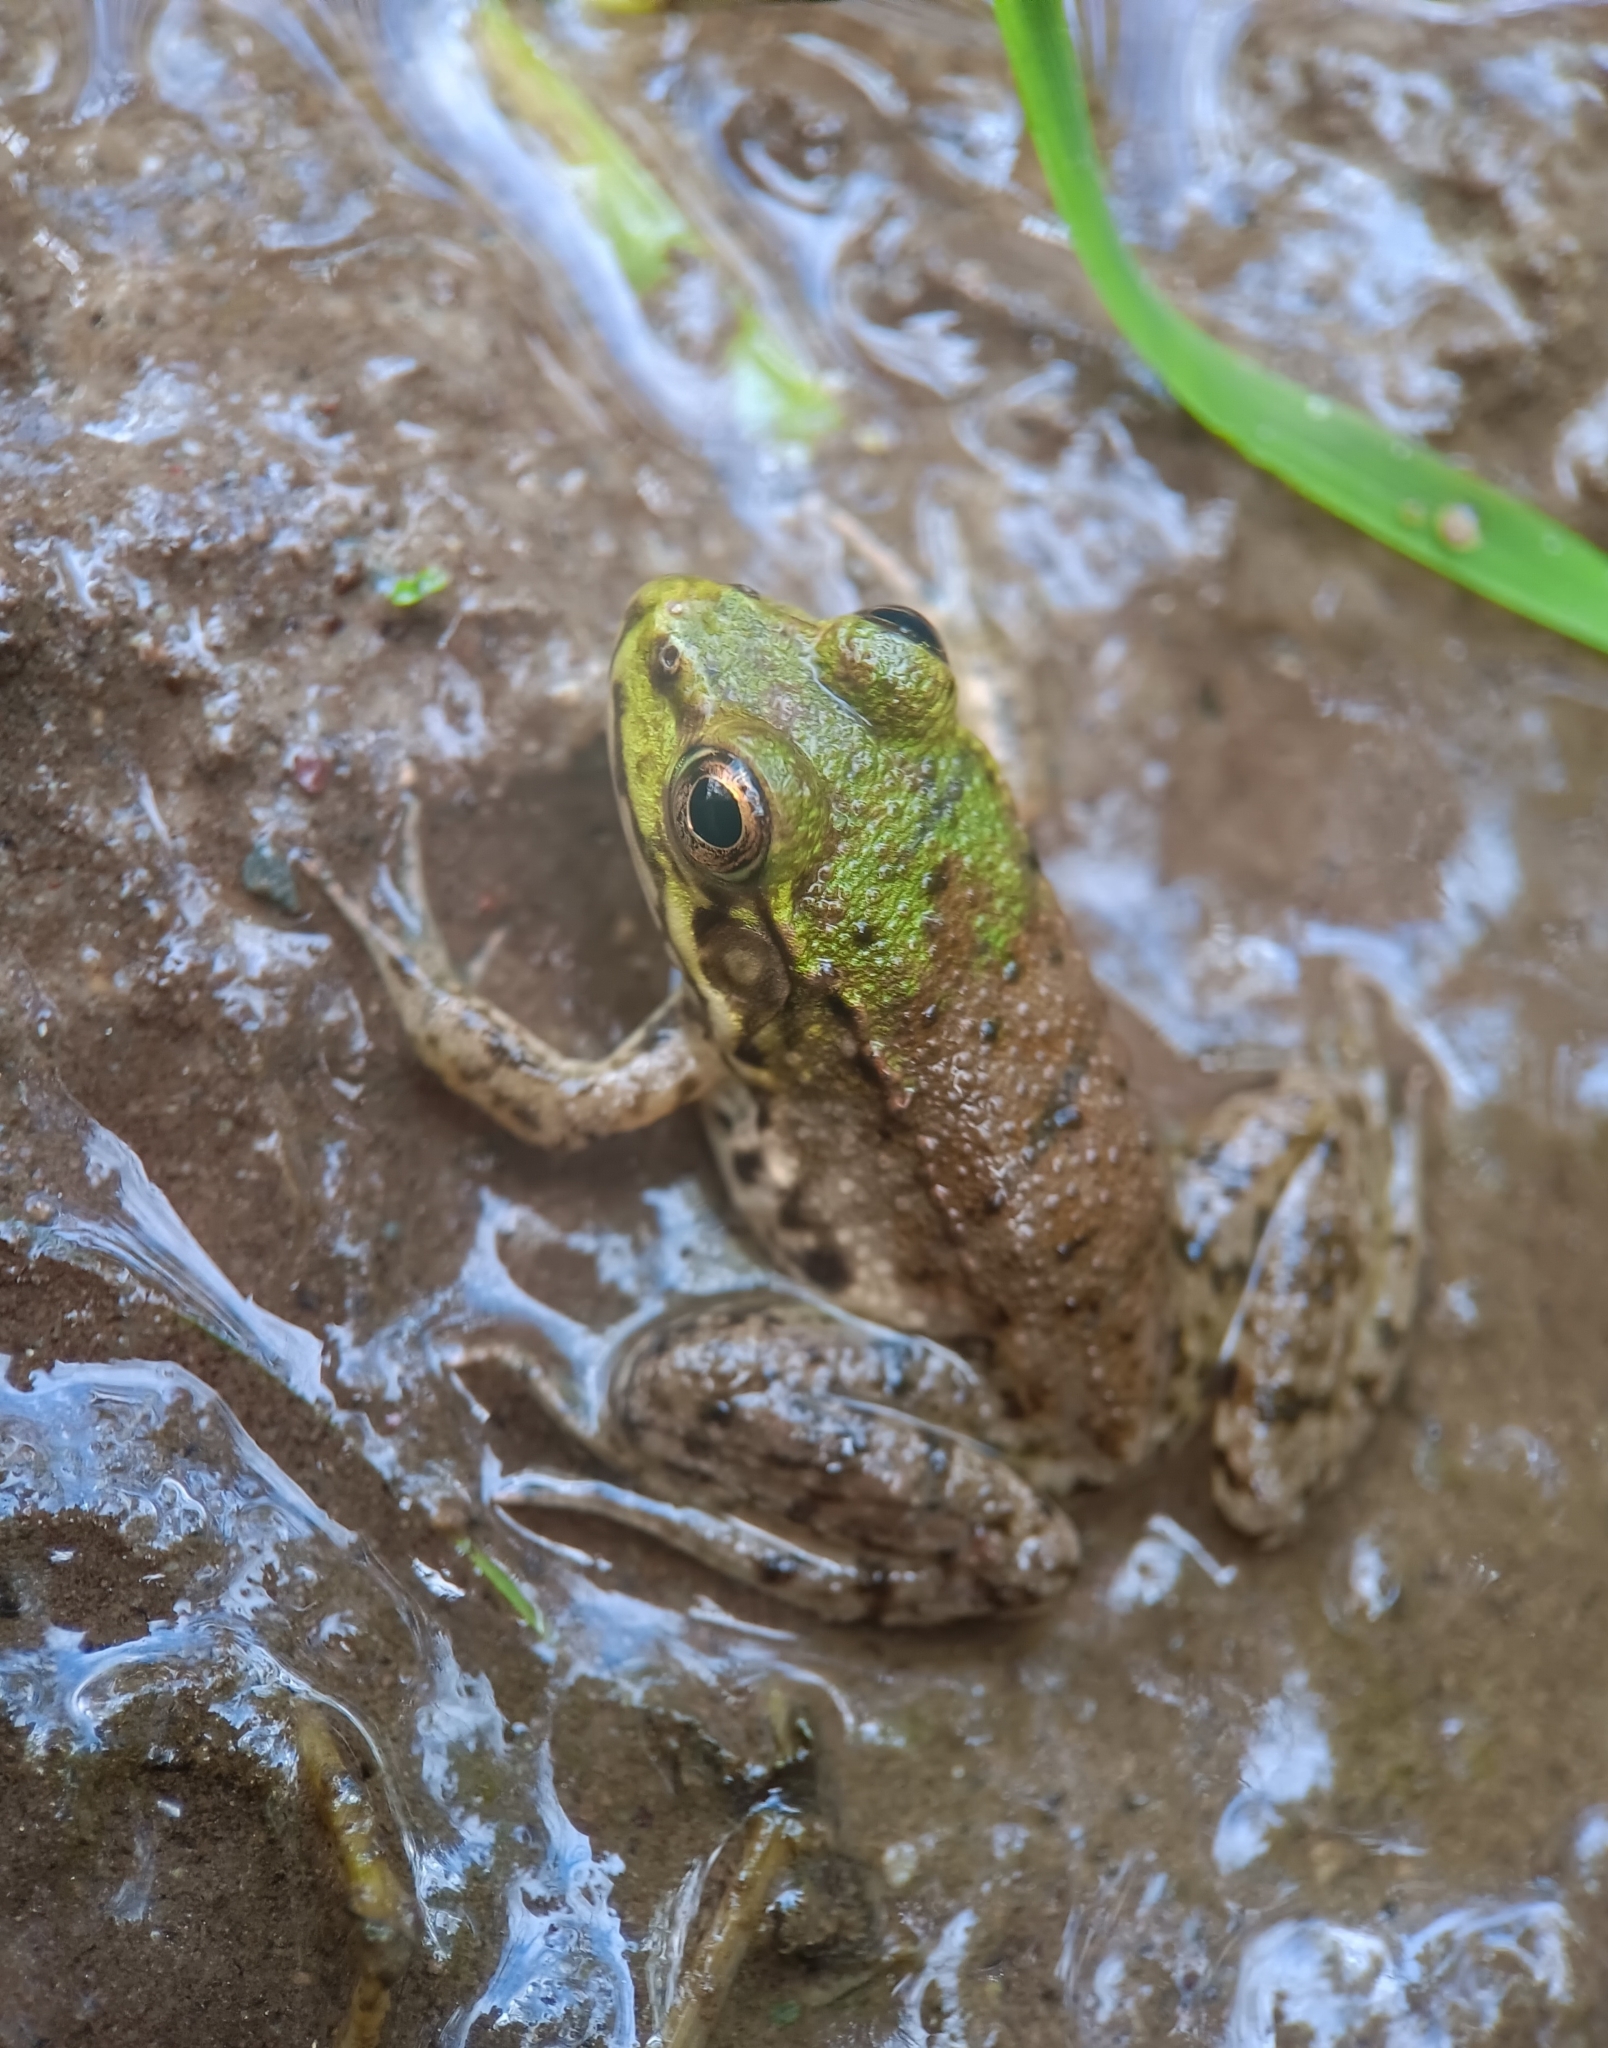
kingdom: Animalia
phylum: Chordata
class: Amphibia
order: Anura
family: Ranidae
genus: Lithobates
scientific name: Lithobates clamitans
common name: Green frog
